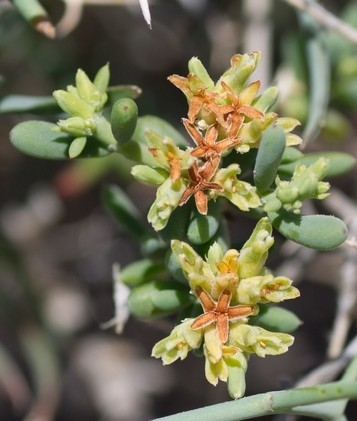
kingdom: Plantae
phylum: Tracheophyta
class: Magnoliopsida
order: Caryophyllales
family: Caryophyllaceae
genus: Gymnocarpos
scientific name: Gymnocarpos decander
